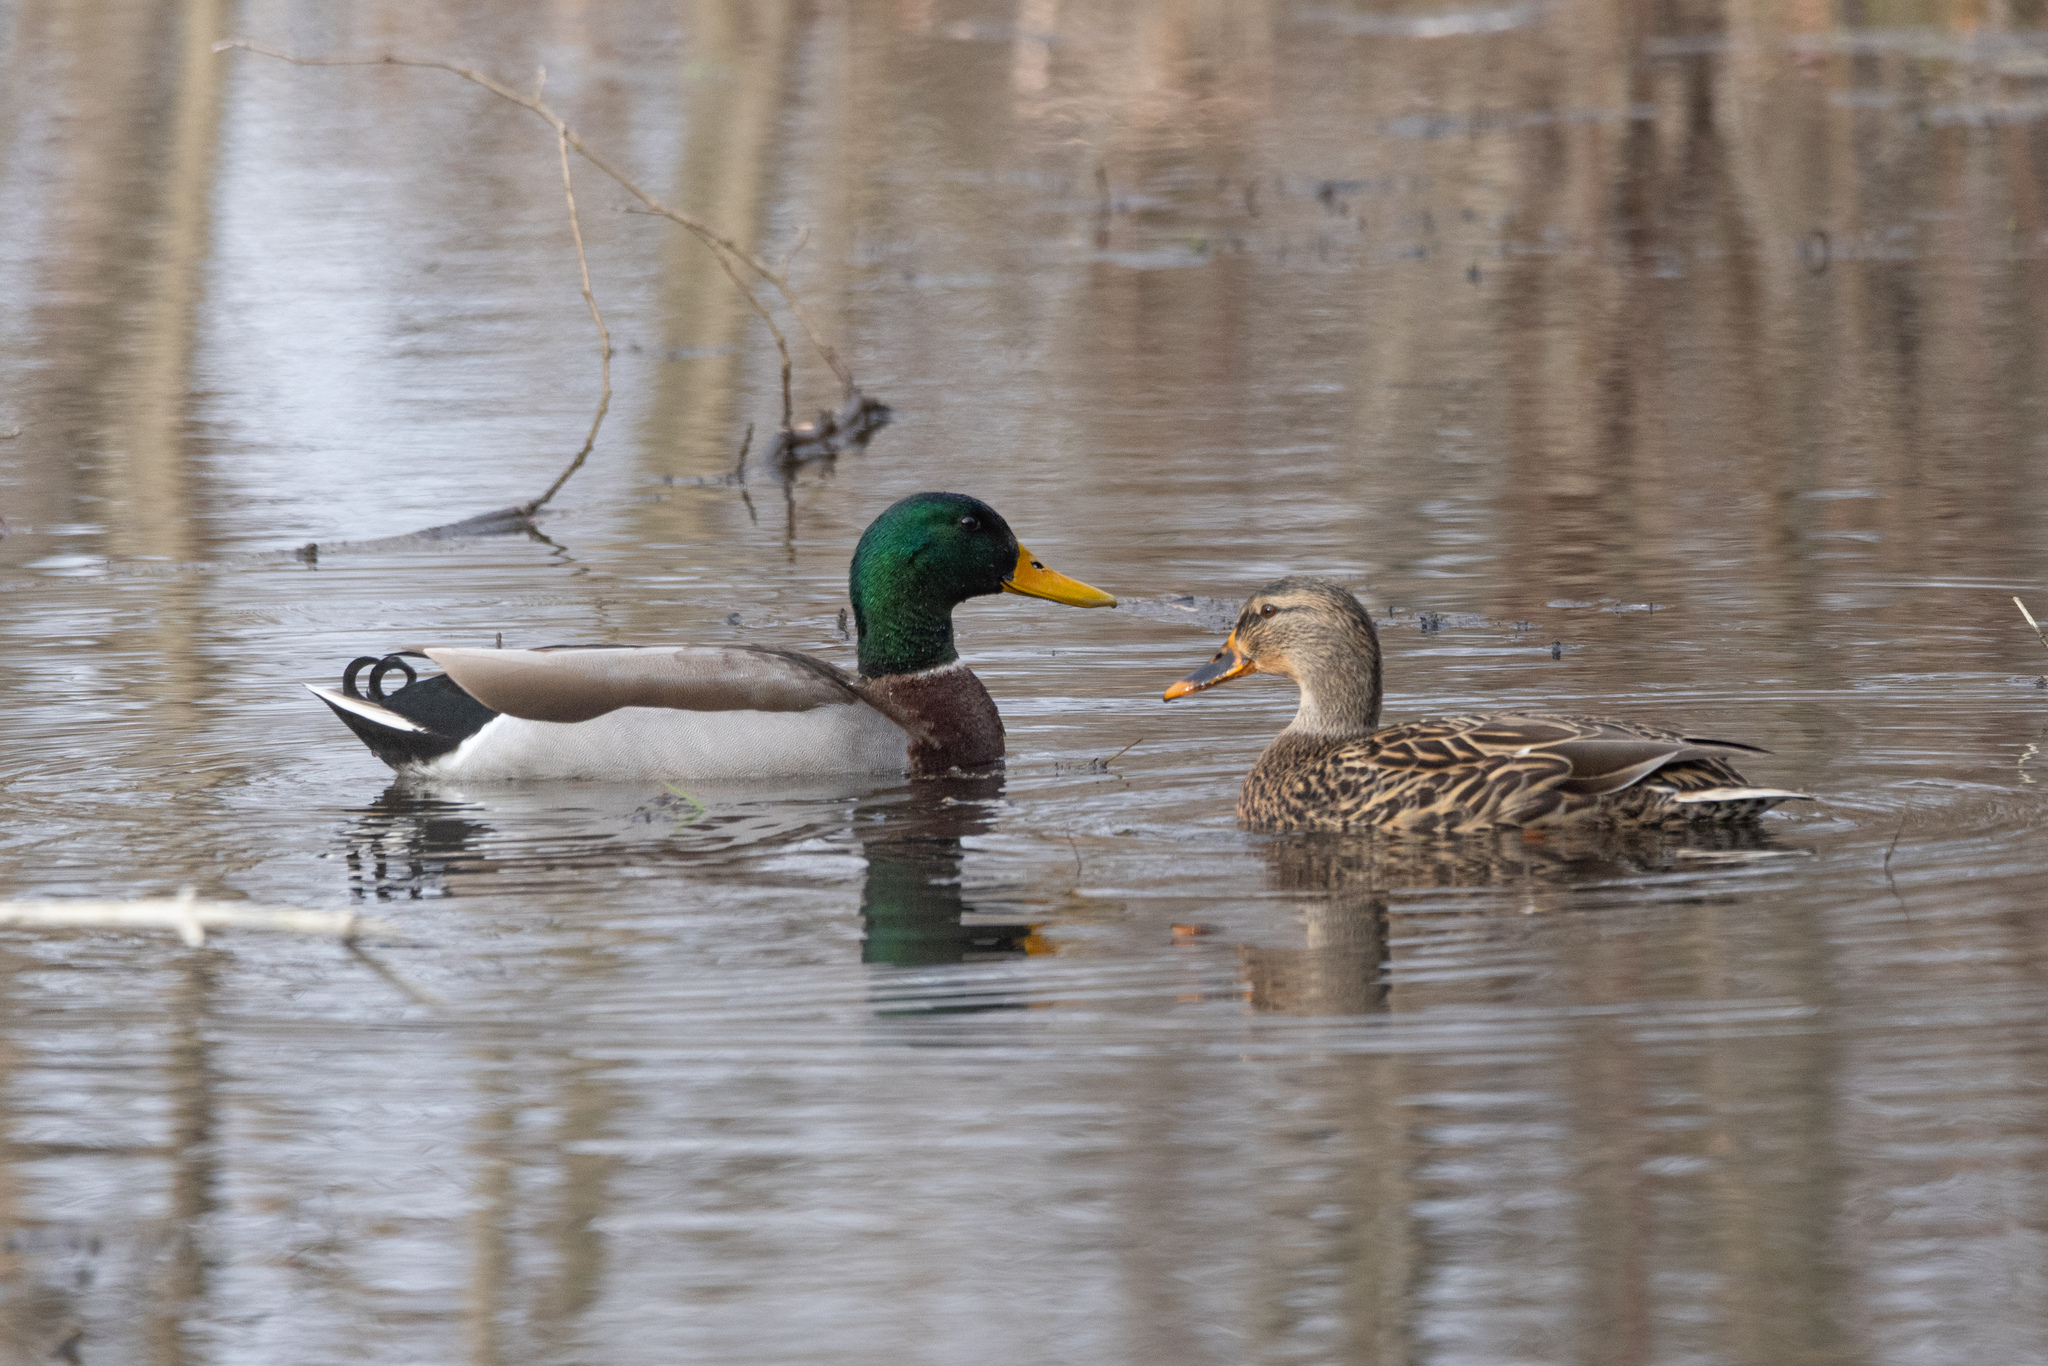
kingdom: Animalia
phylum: Chordata
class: Aves
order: Anseriformes
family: Anatidae
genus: Anas
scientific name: Anas platyrhynchos
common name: Mallard
